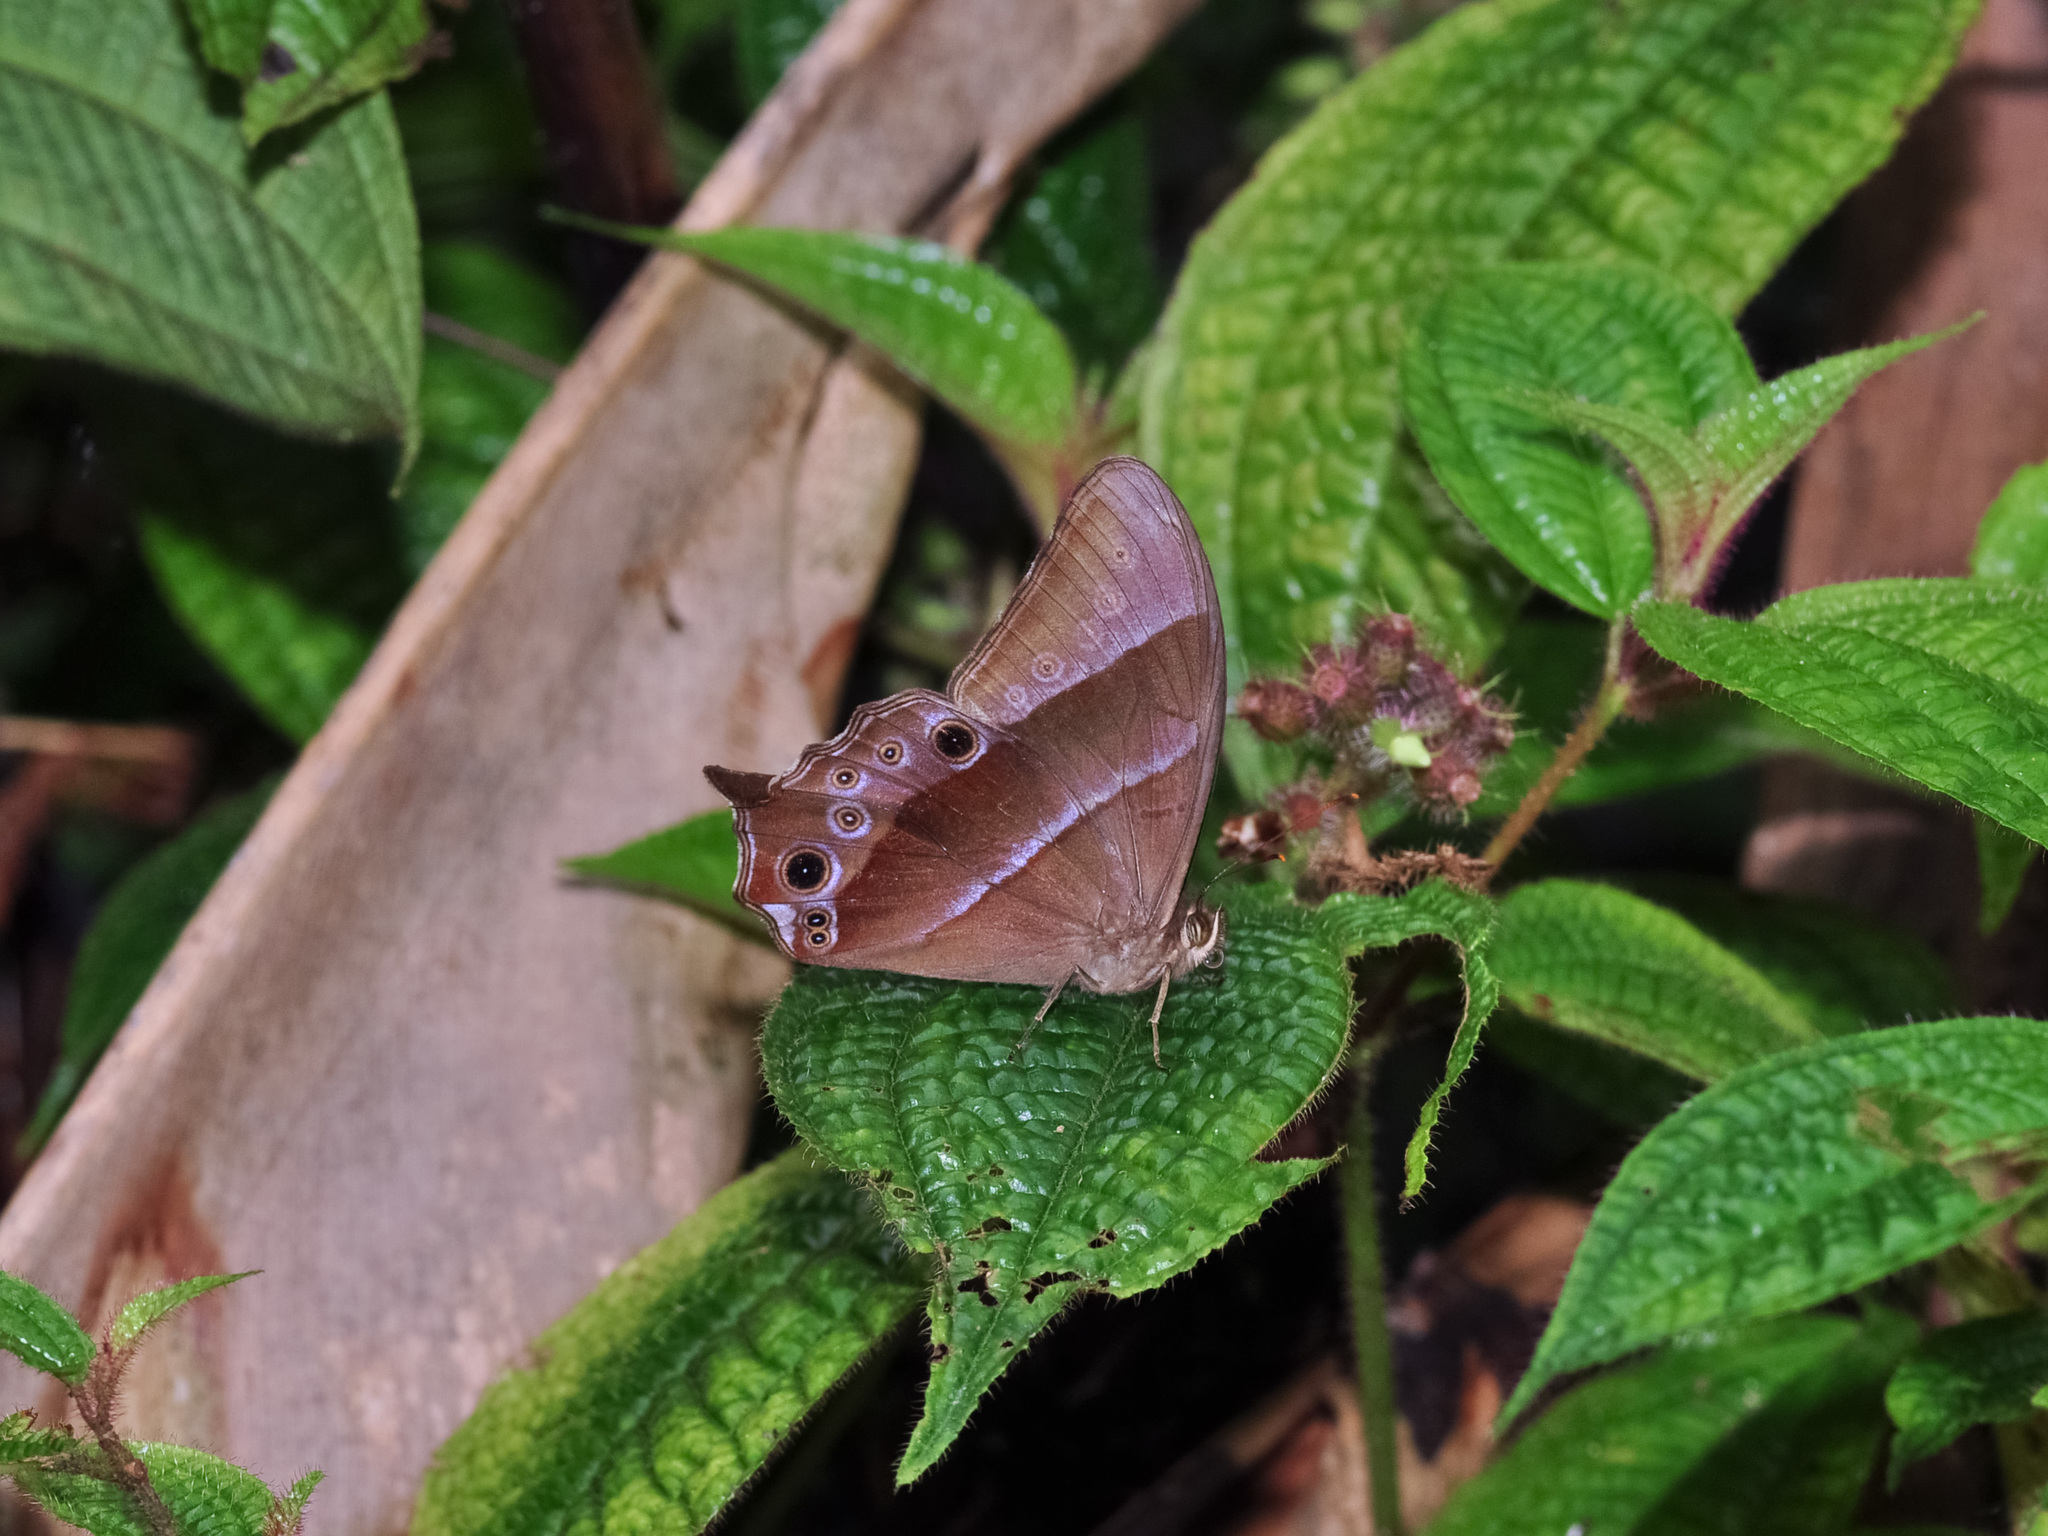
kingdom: Animalia
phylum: Arthropoda
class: Insecta
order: Lepidoptera
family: Nymphalidae
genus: Lethe
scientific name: Lethe vindhya
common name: Black forester
